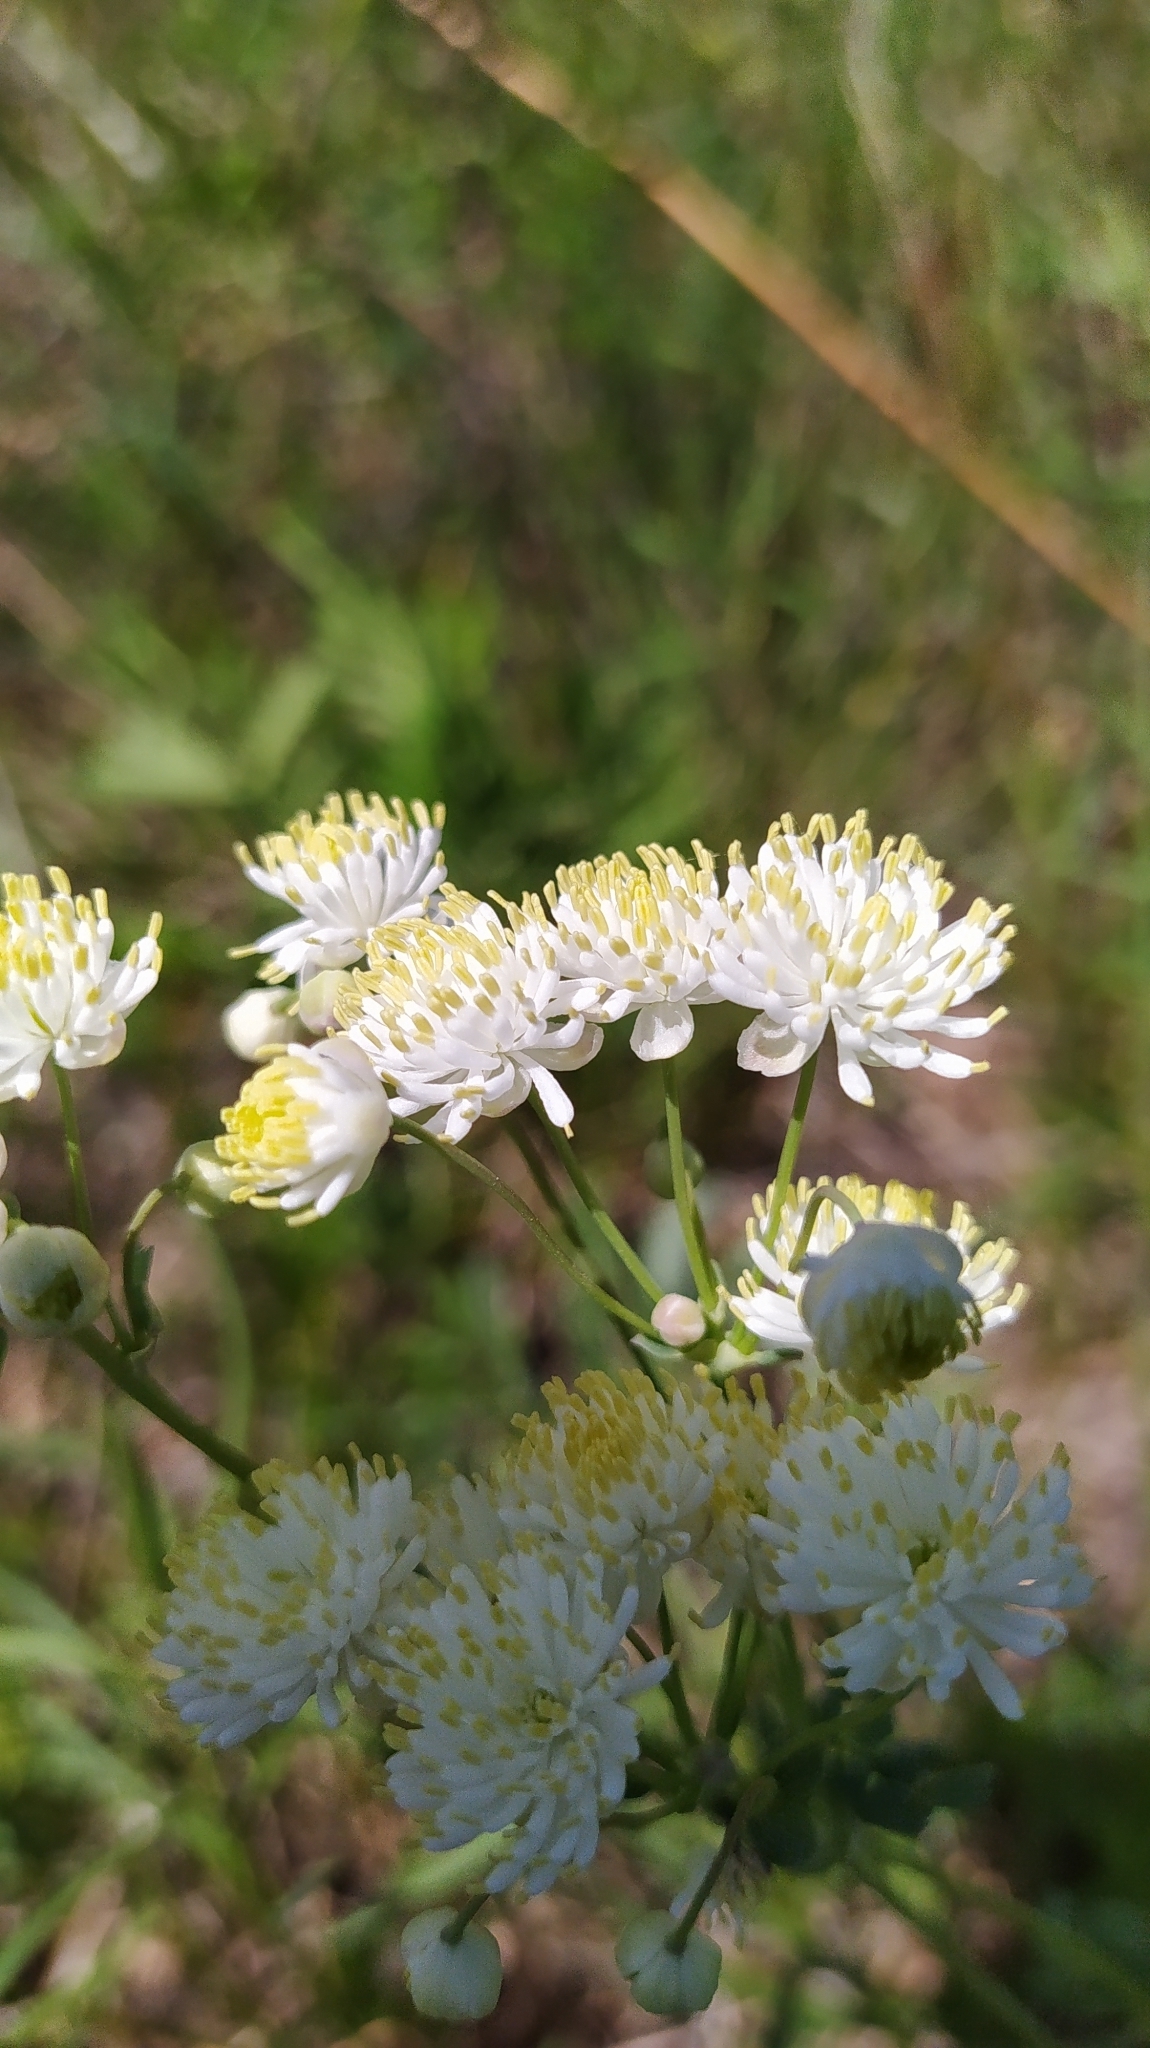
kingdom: Plantae
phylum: Tracheophyta
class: Magnoliopsida
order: Ranunculales
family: Ranunculaceae
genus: Thalictrum
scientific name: Thalictrum petaloideum
